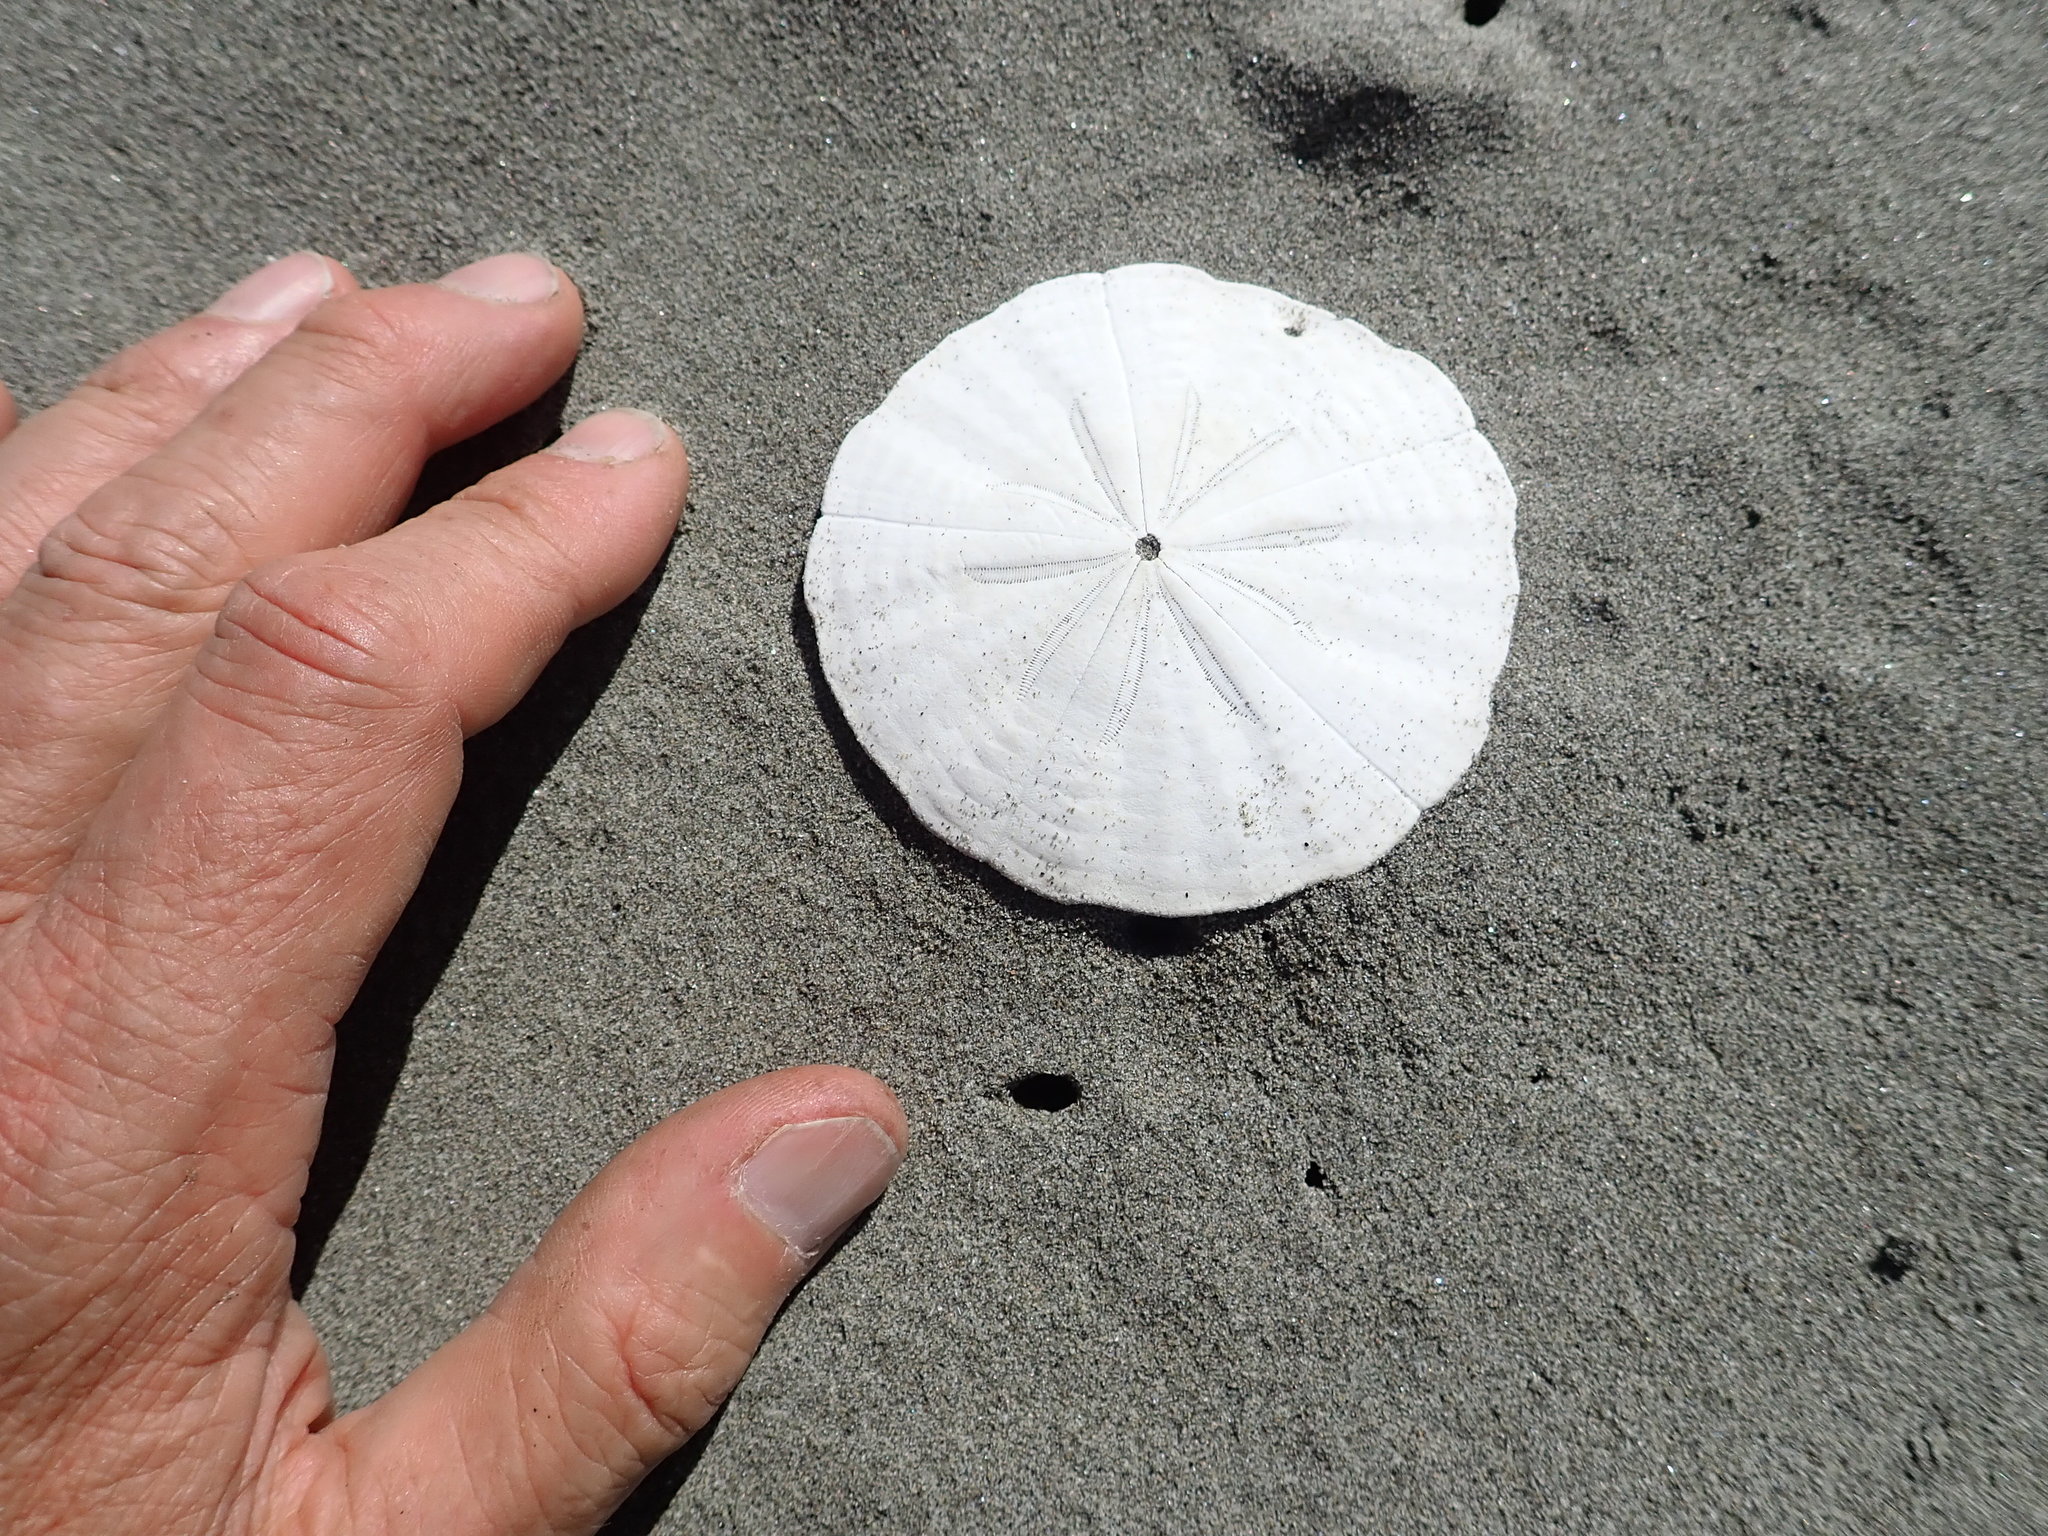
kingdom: Animalia
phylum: Echinodermata
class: Echinoidea
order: Clypeasteroida
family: Clypeasteridae
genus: Fellaster
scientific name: Fellaster zelandiae
